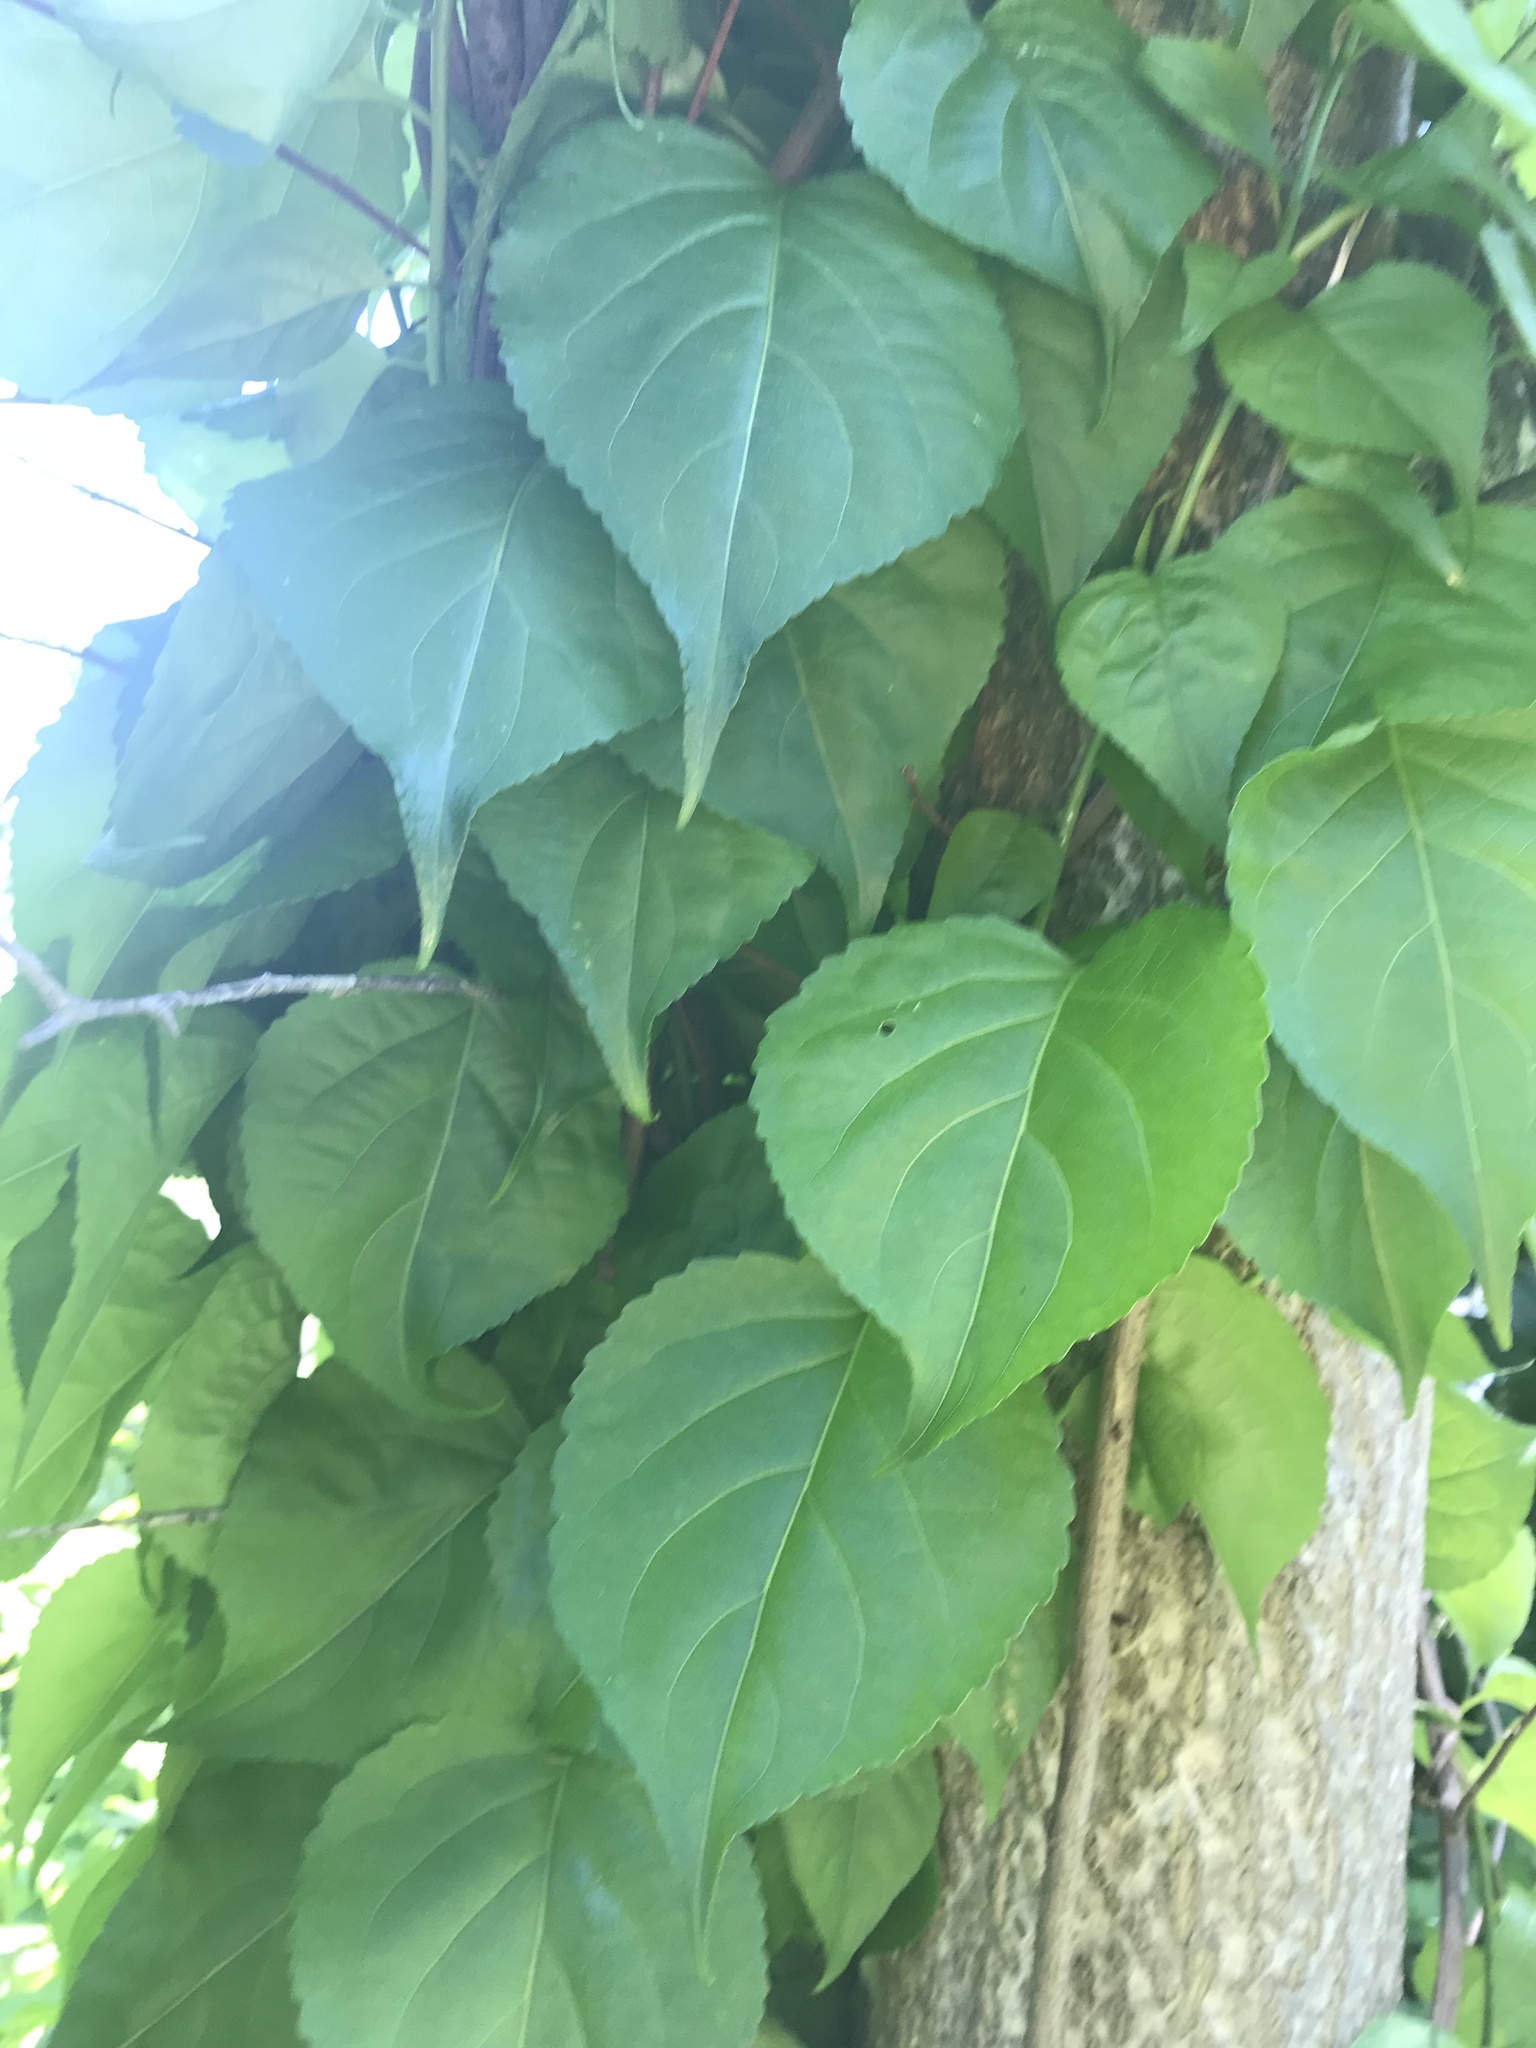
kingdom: Plantae
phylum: Tracheophyta
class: Magnoliopsida
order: Celastrales
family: Celastraceae
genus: Celastrus
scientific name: Celastrus orbiculatus
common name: Oriental bittersweet
